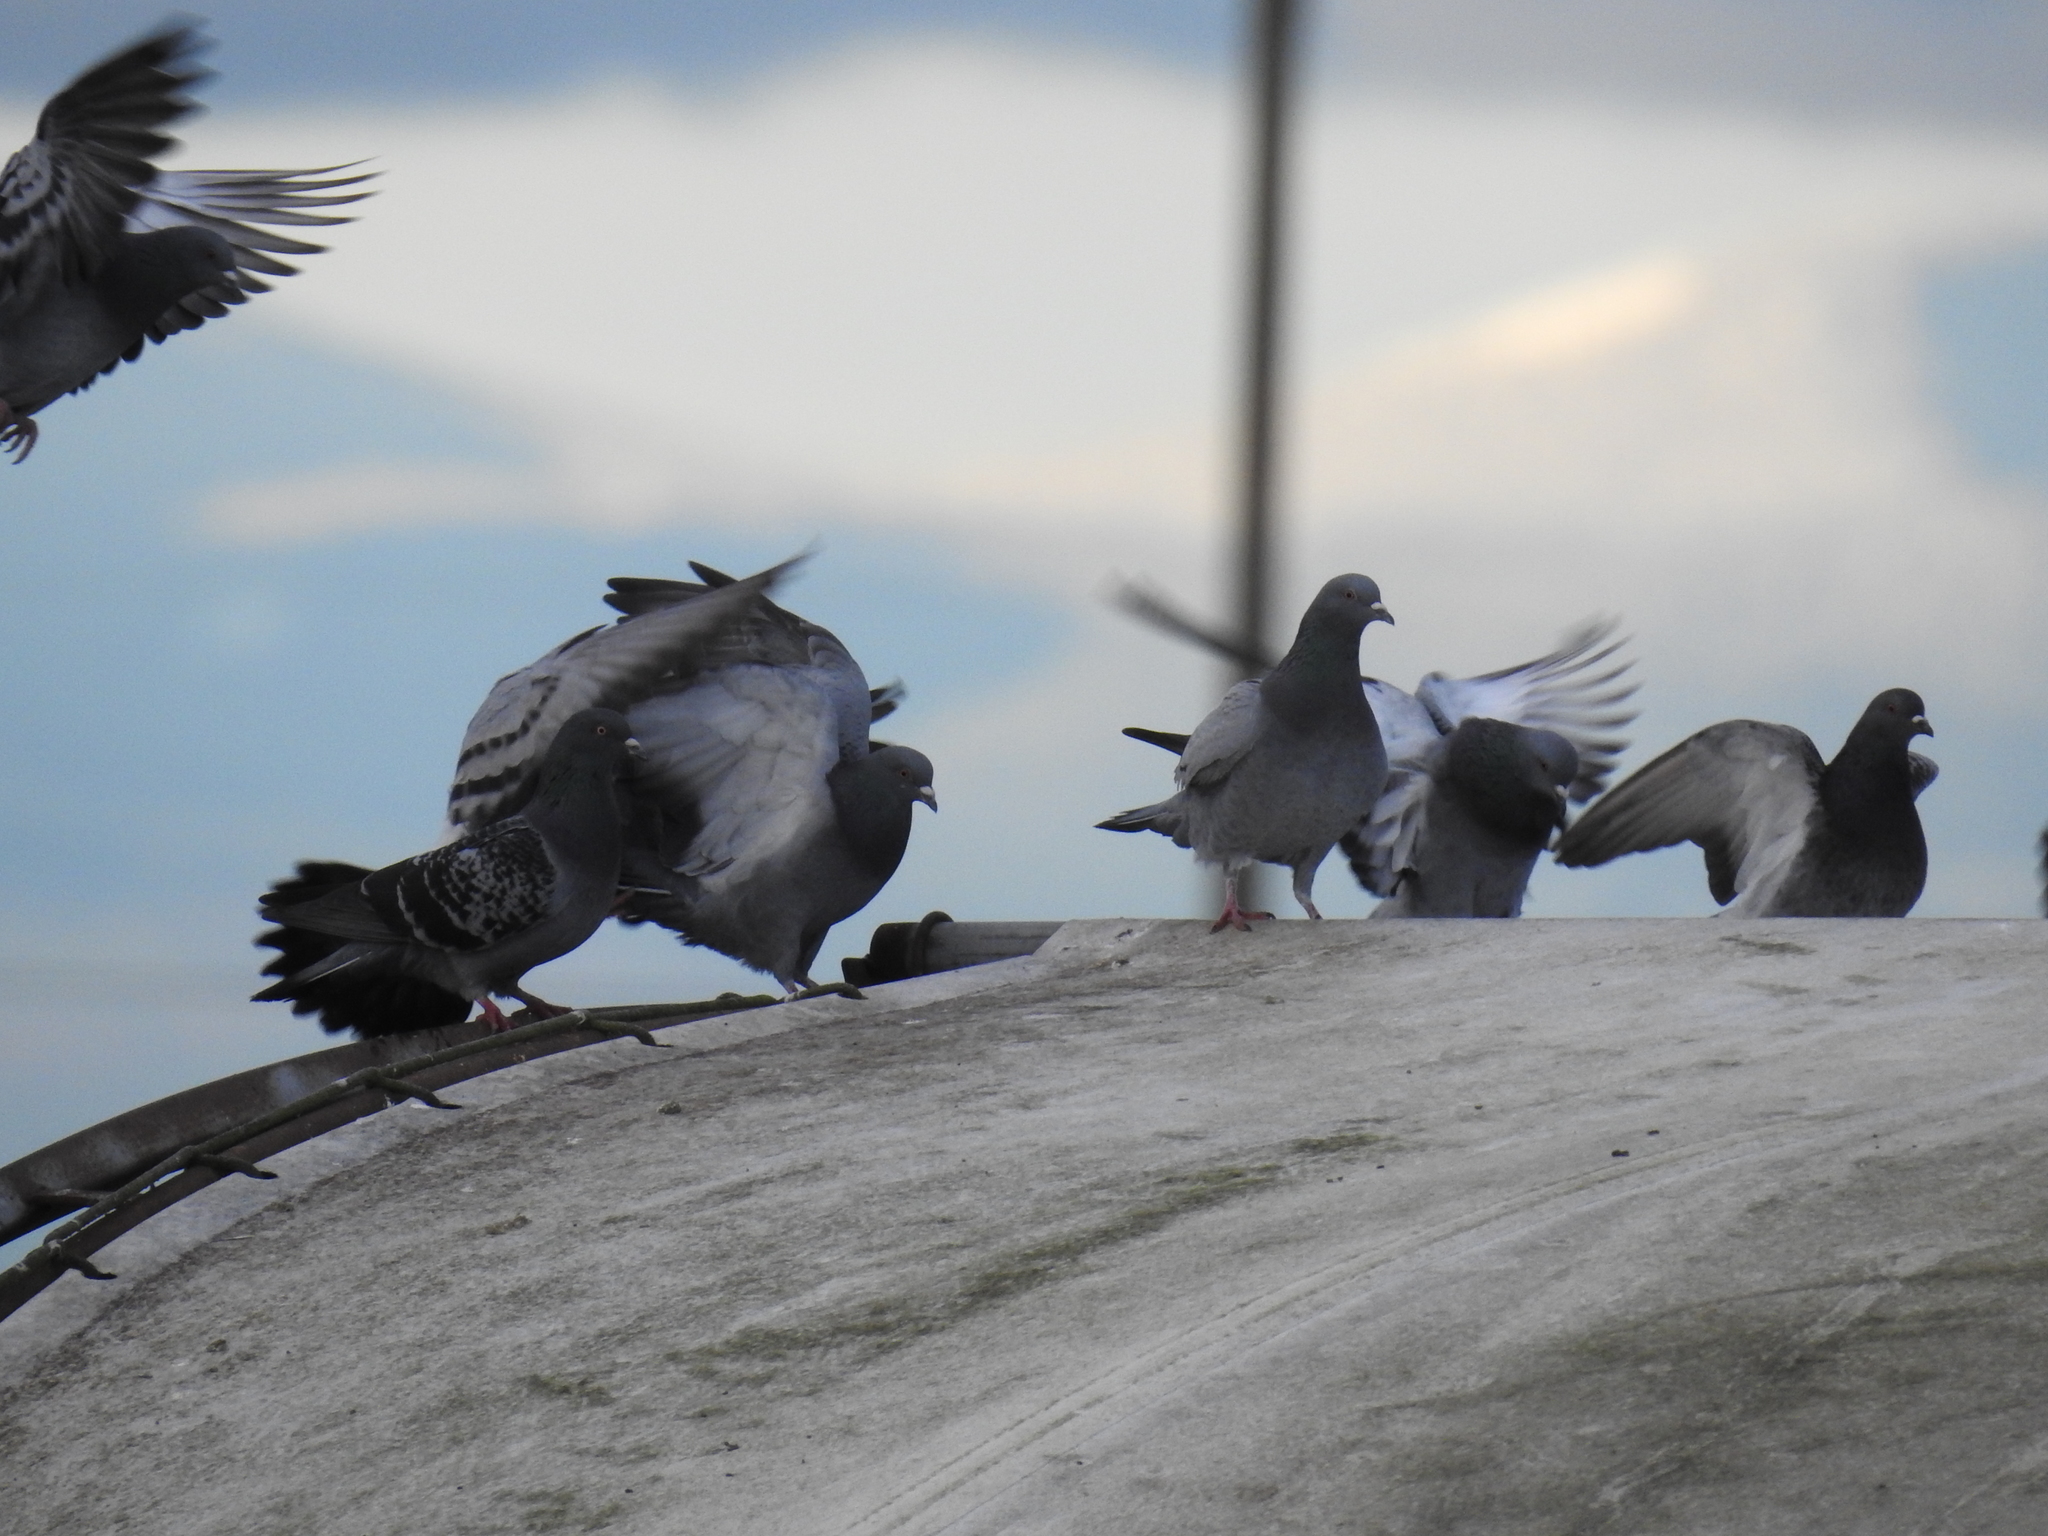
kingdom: Animalia
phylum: Chordata
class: Aves
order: Columbiformes
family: Columbidae
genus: Columba
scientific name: Columba livia
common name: Rock pigeon
